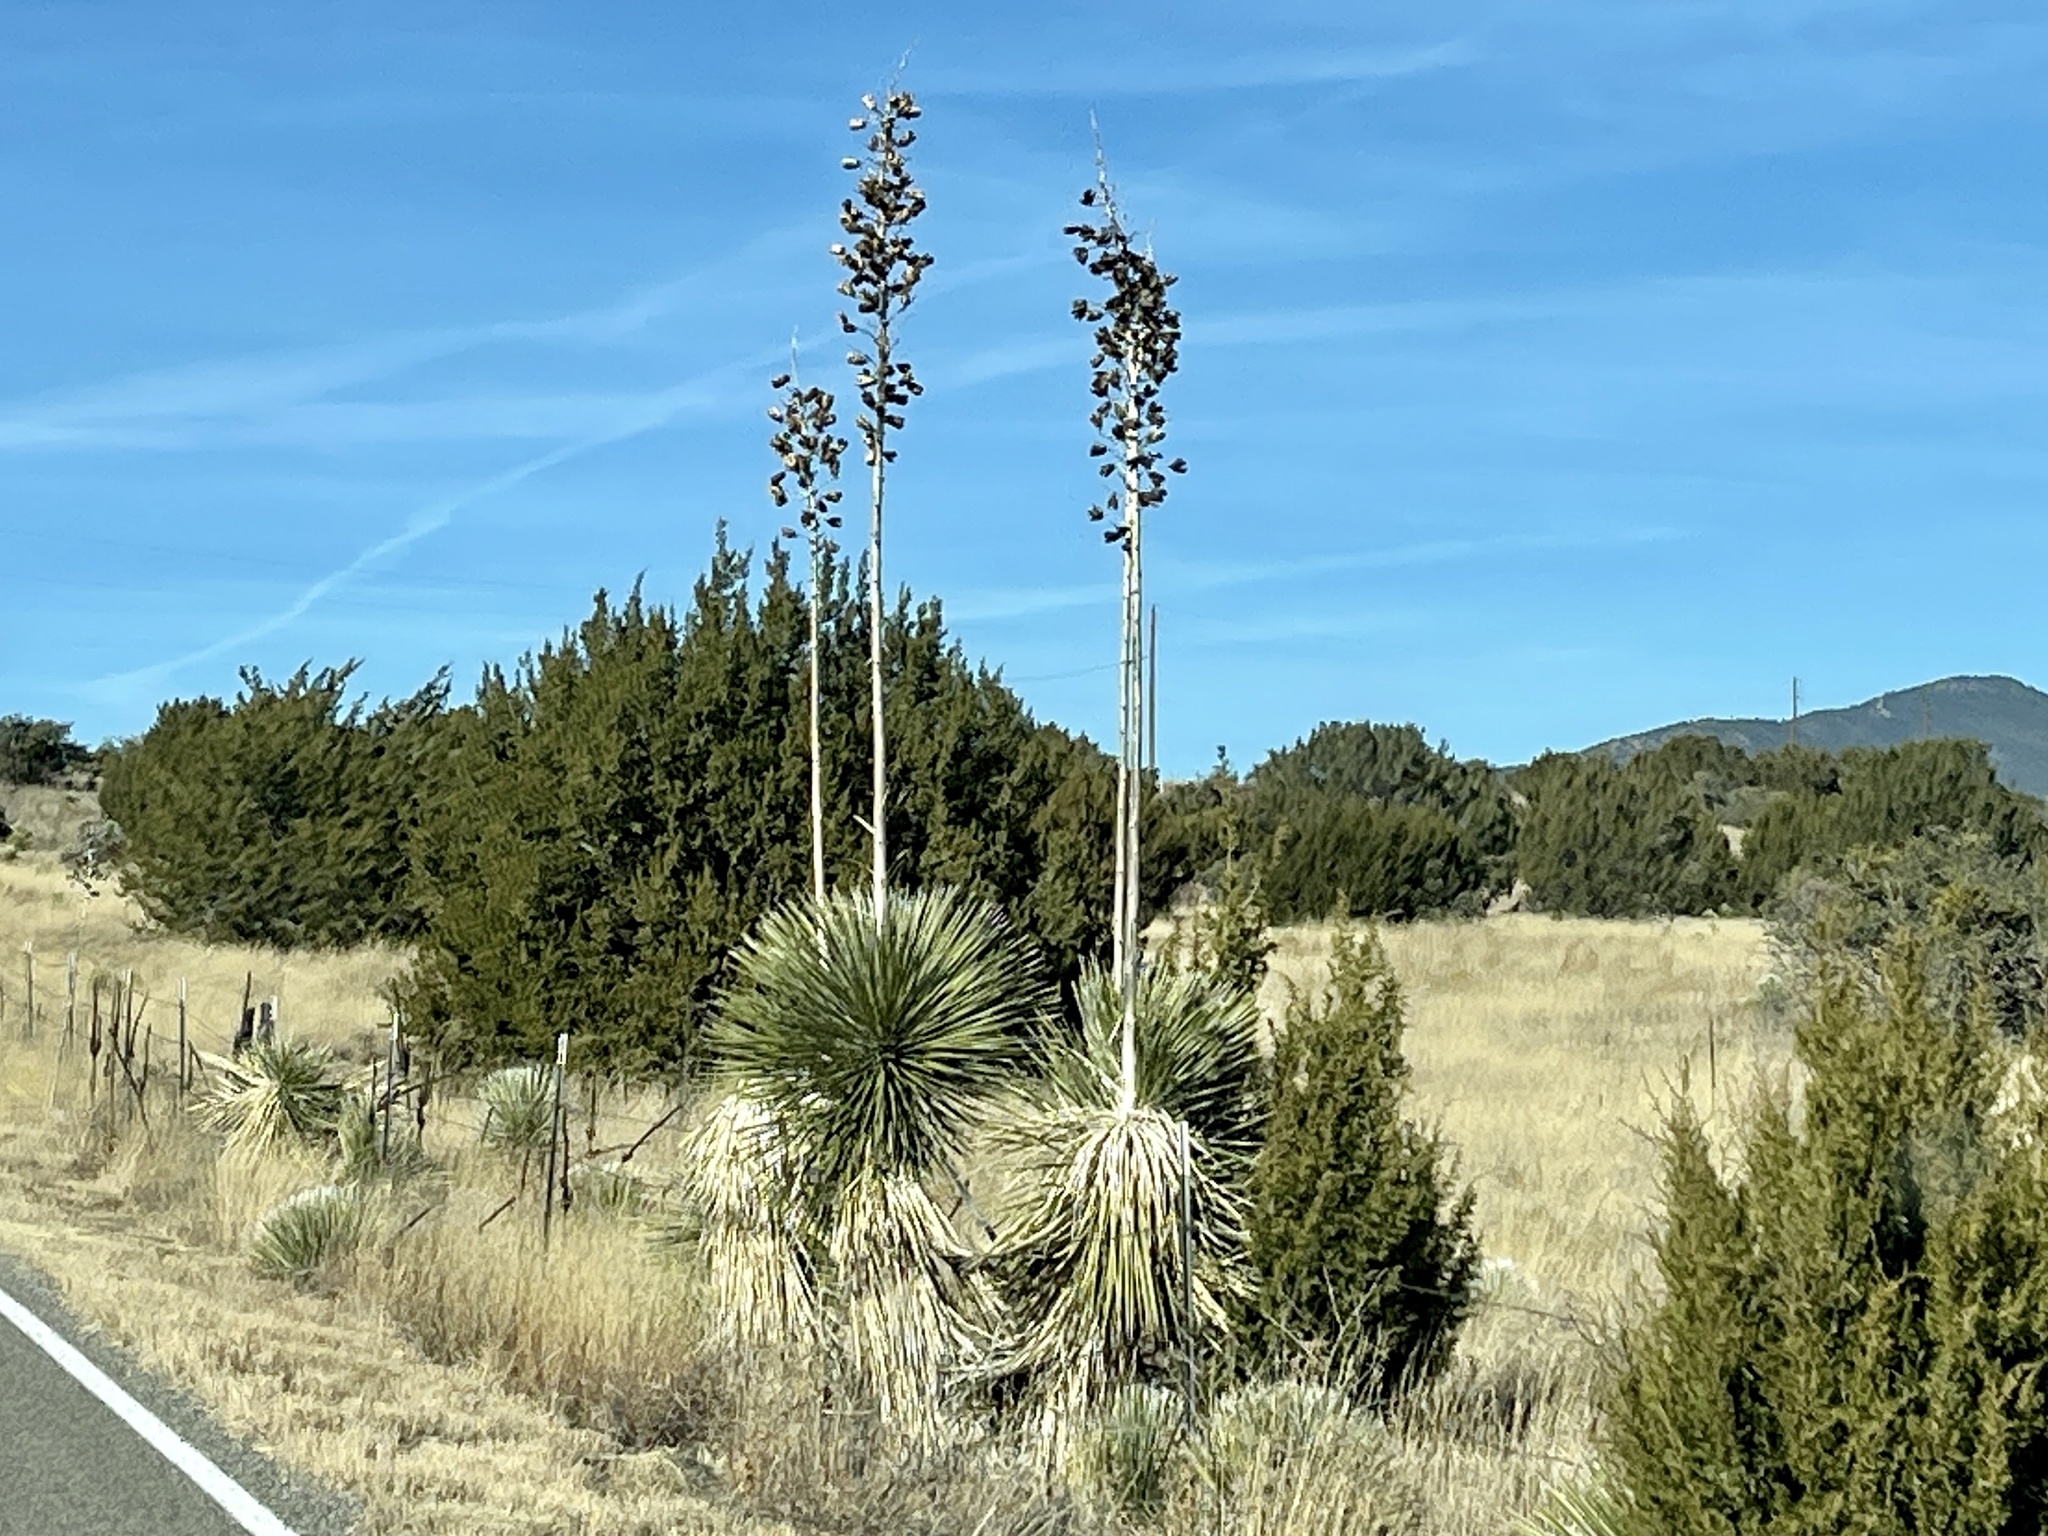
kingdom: Plantae
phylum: Tracheophyta
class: Liliopsida
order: Asparagales
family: Asparagaceae
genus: Yucca
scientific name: Yucca elata
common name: Palmella
